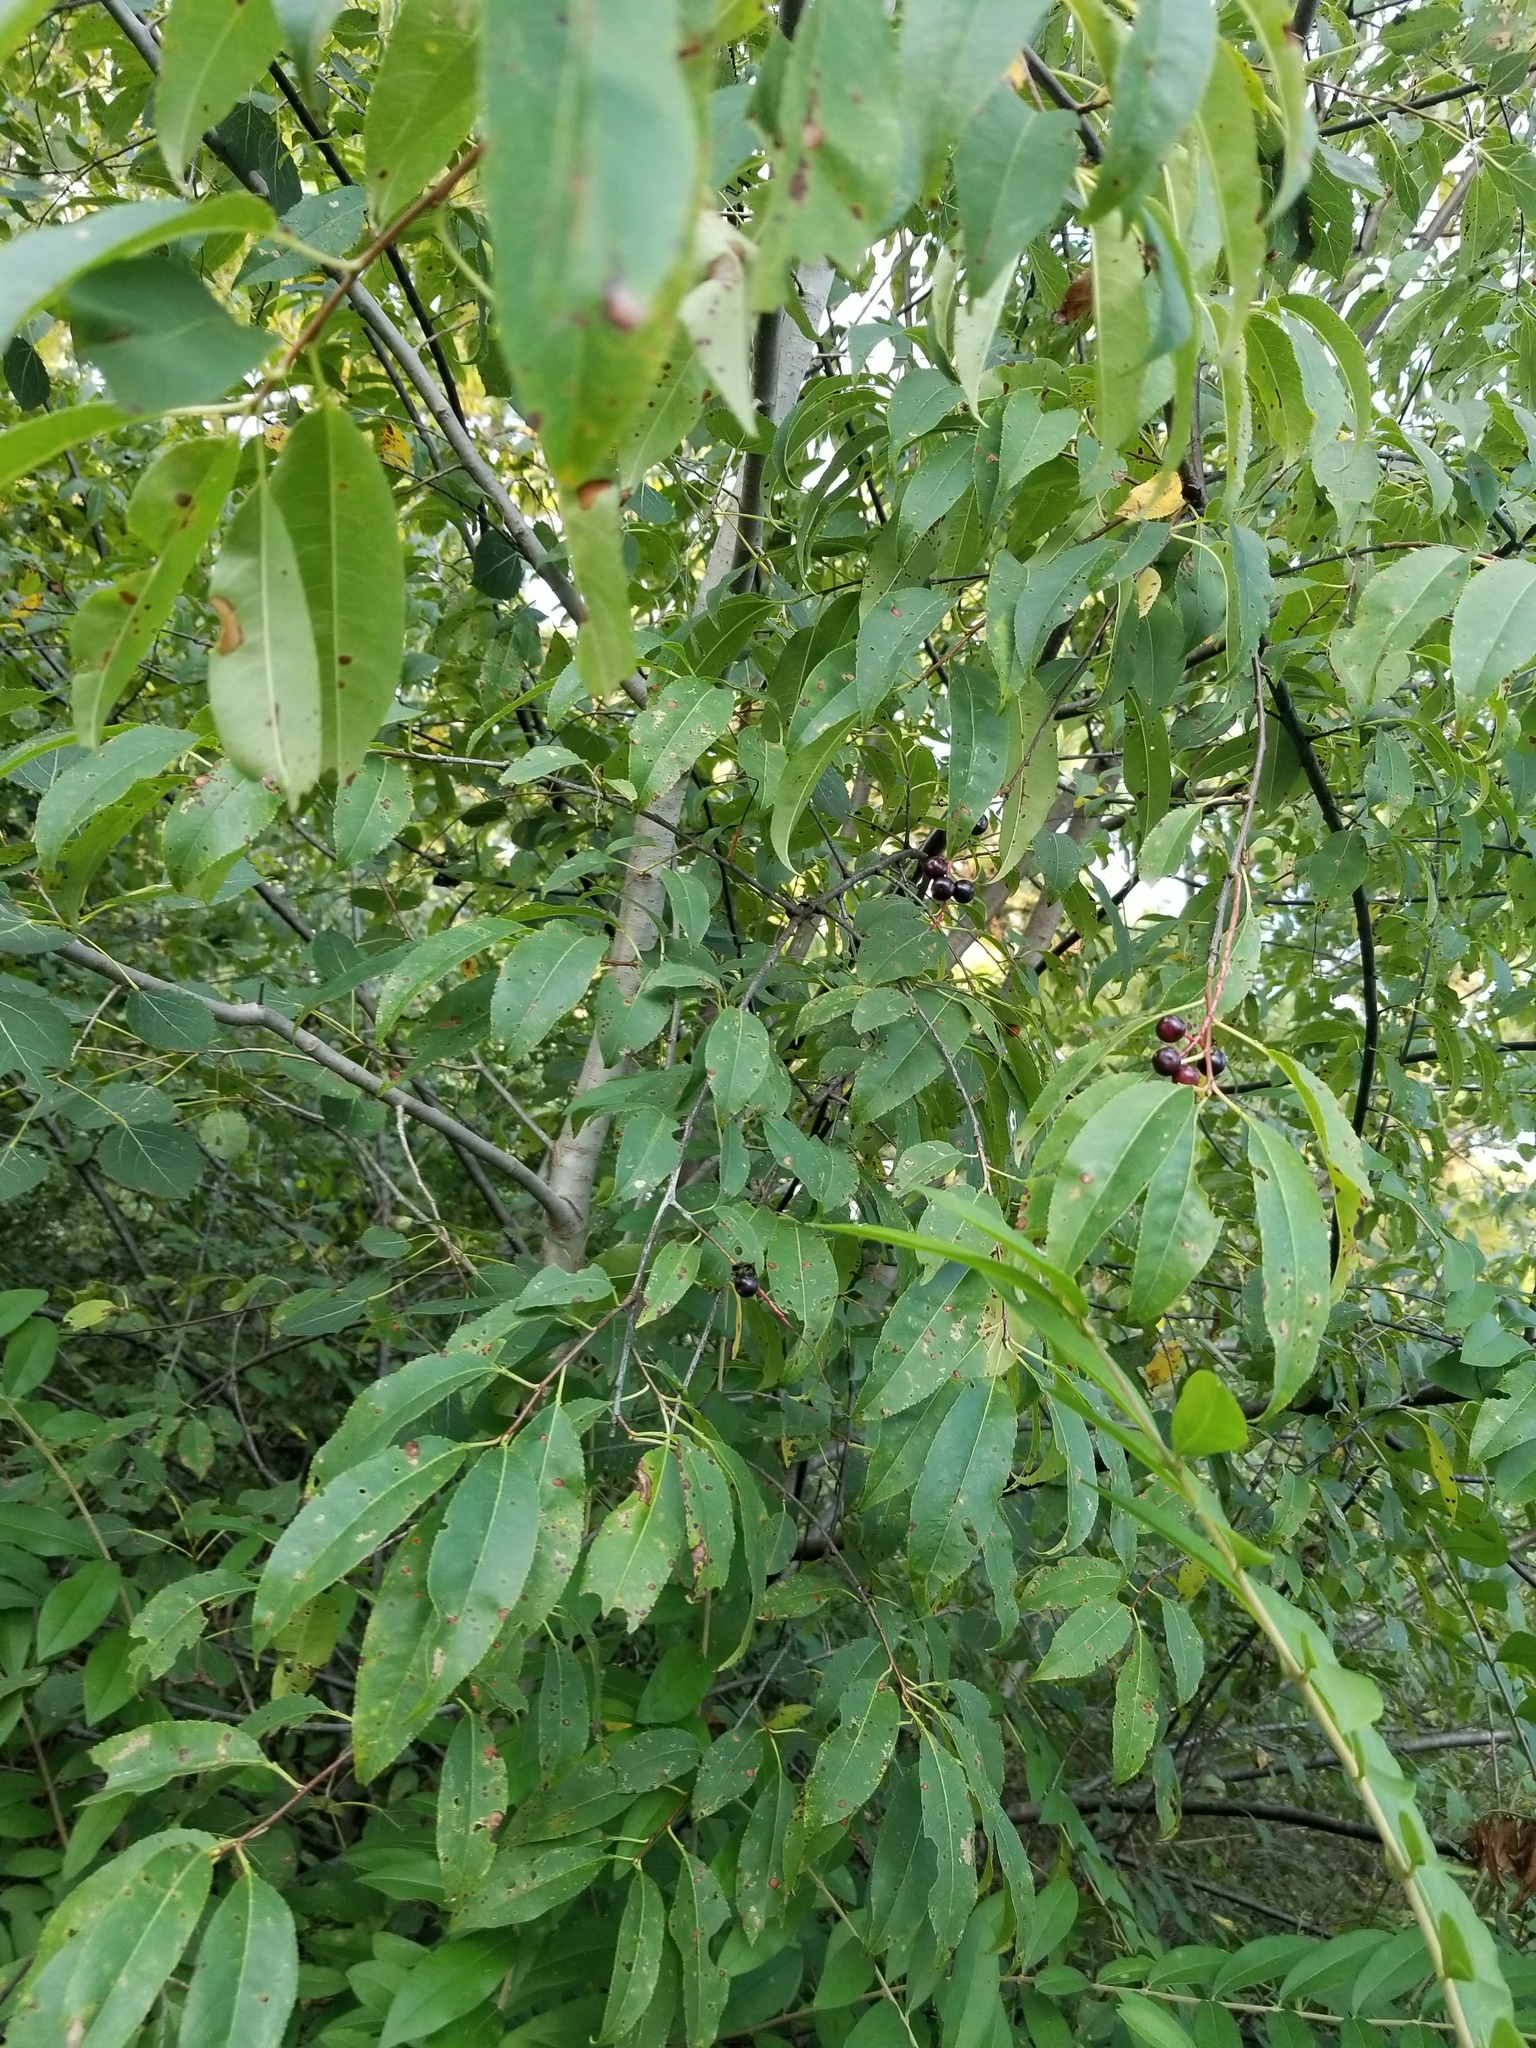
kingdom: Plantae
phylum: Tracheophyta
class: Magnoliopsida
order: Rosales
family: Rosaceae
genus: Prunus
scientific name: Prunus serotina
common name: Black cherry
